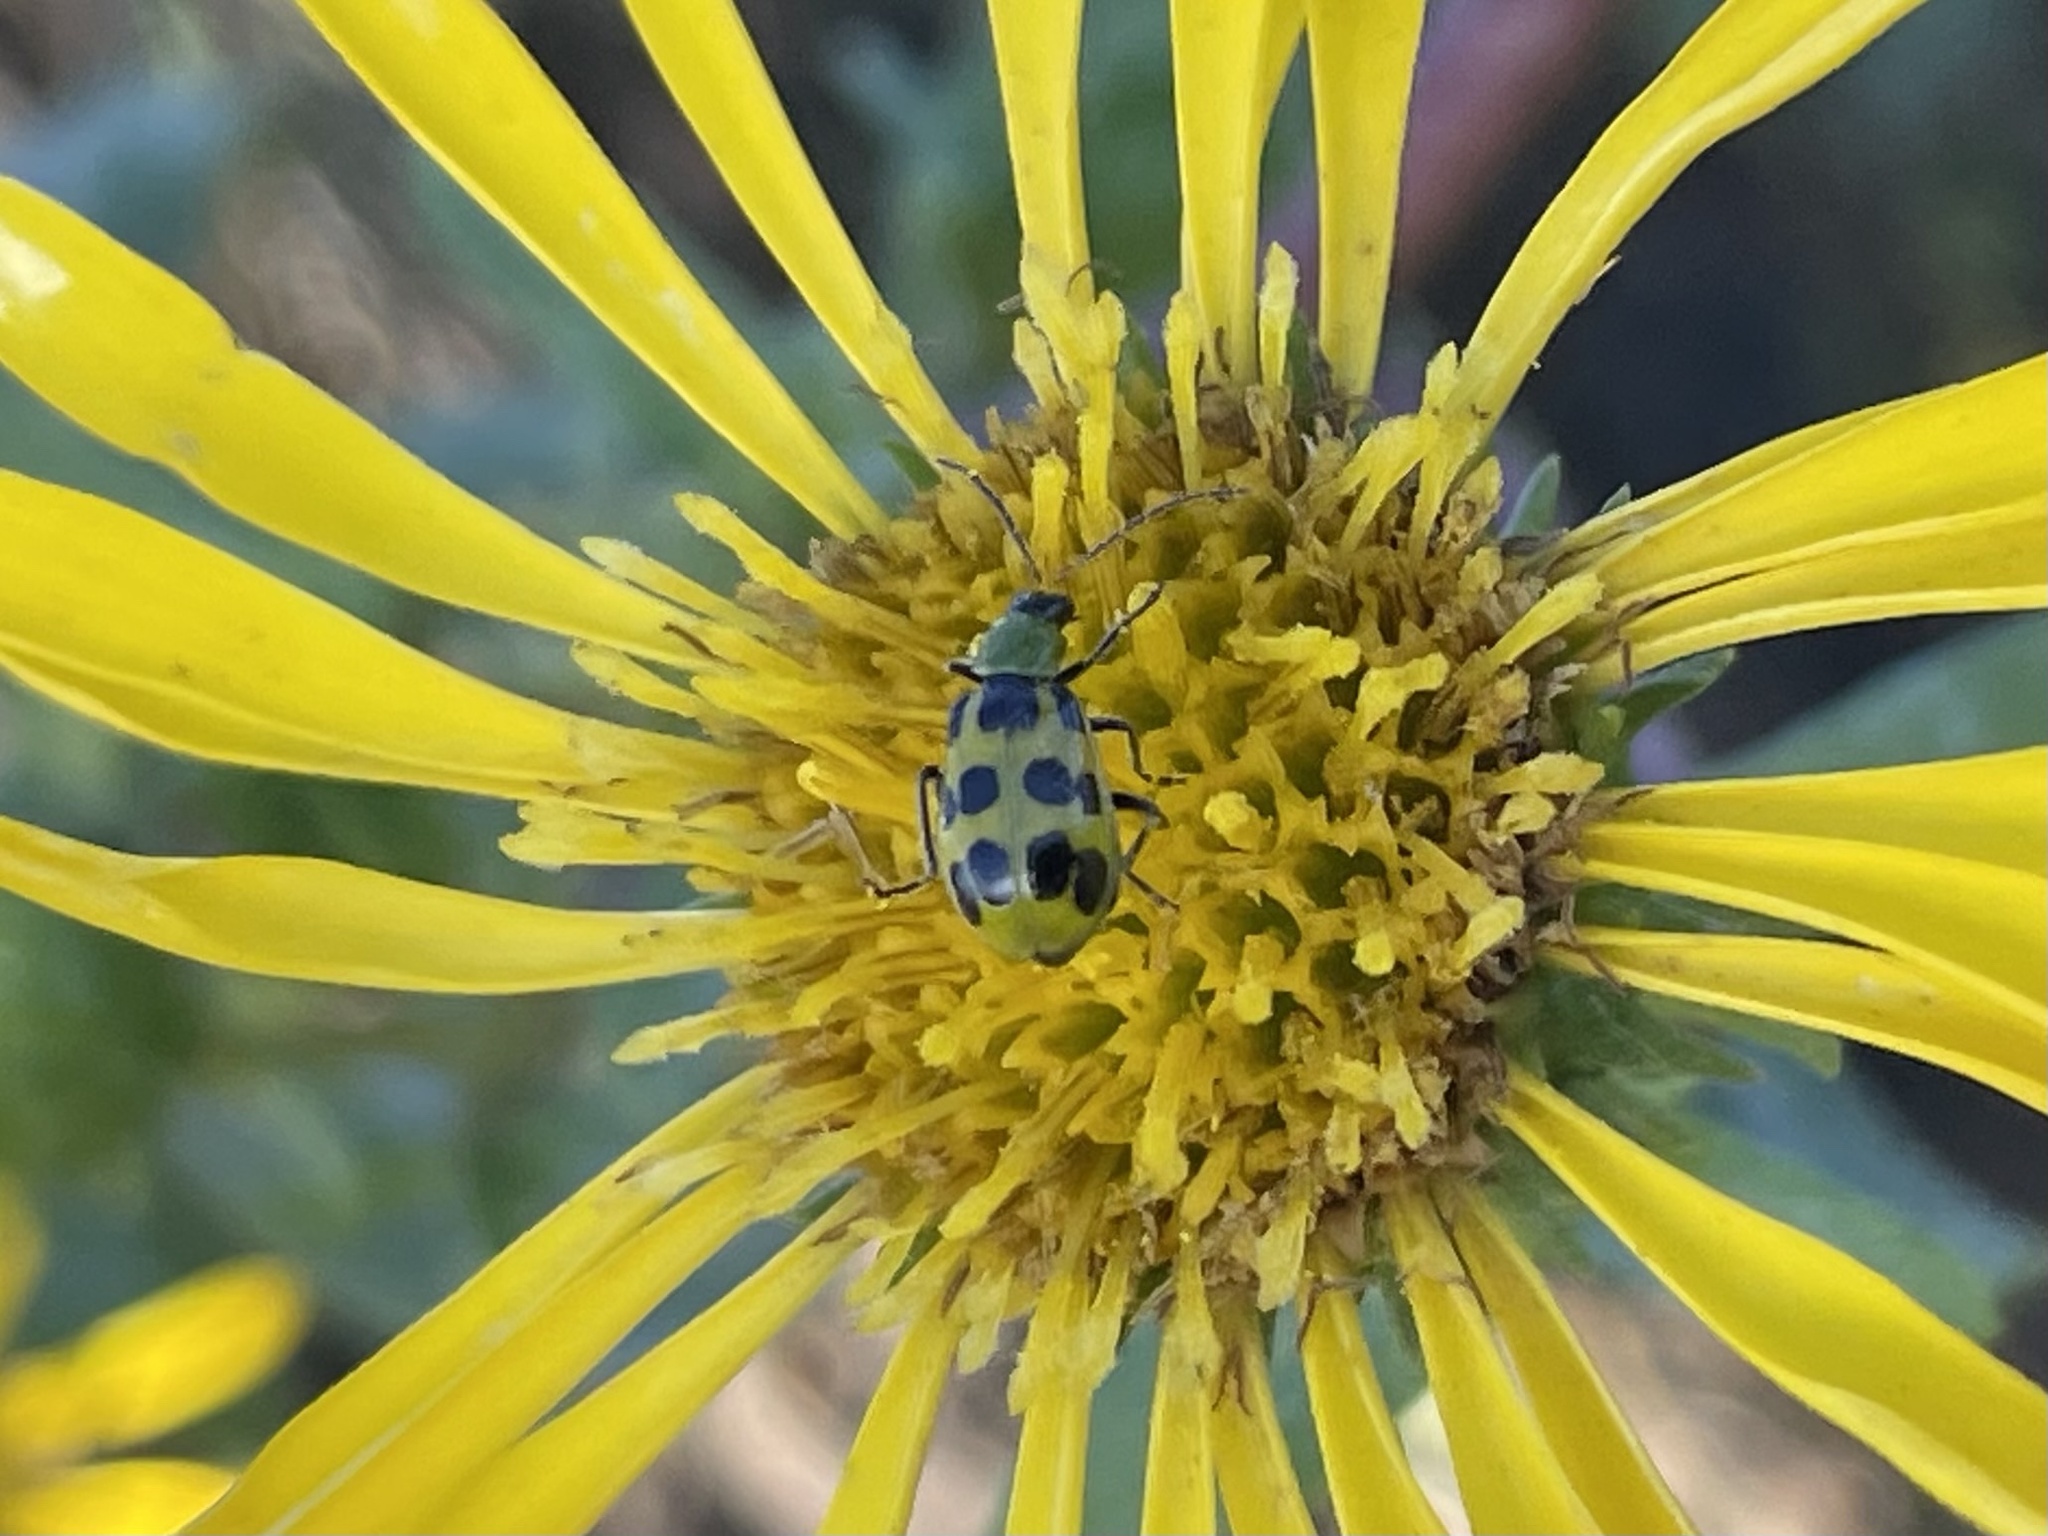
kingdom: Animalia
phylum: Arthropoda
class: Insecta
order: Coleoptera
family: Chrysomelidae
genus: Diabrotica
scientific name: Diabrotica undecimpunctata
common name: Spotted cucumber beetle
